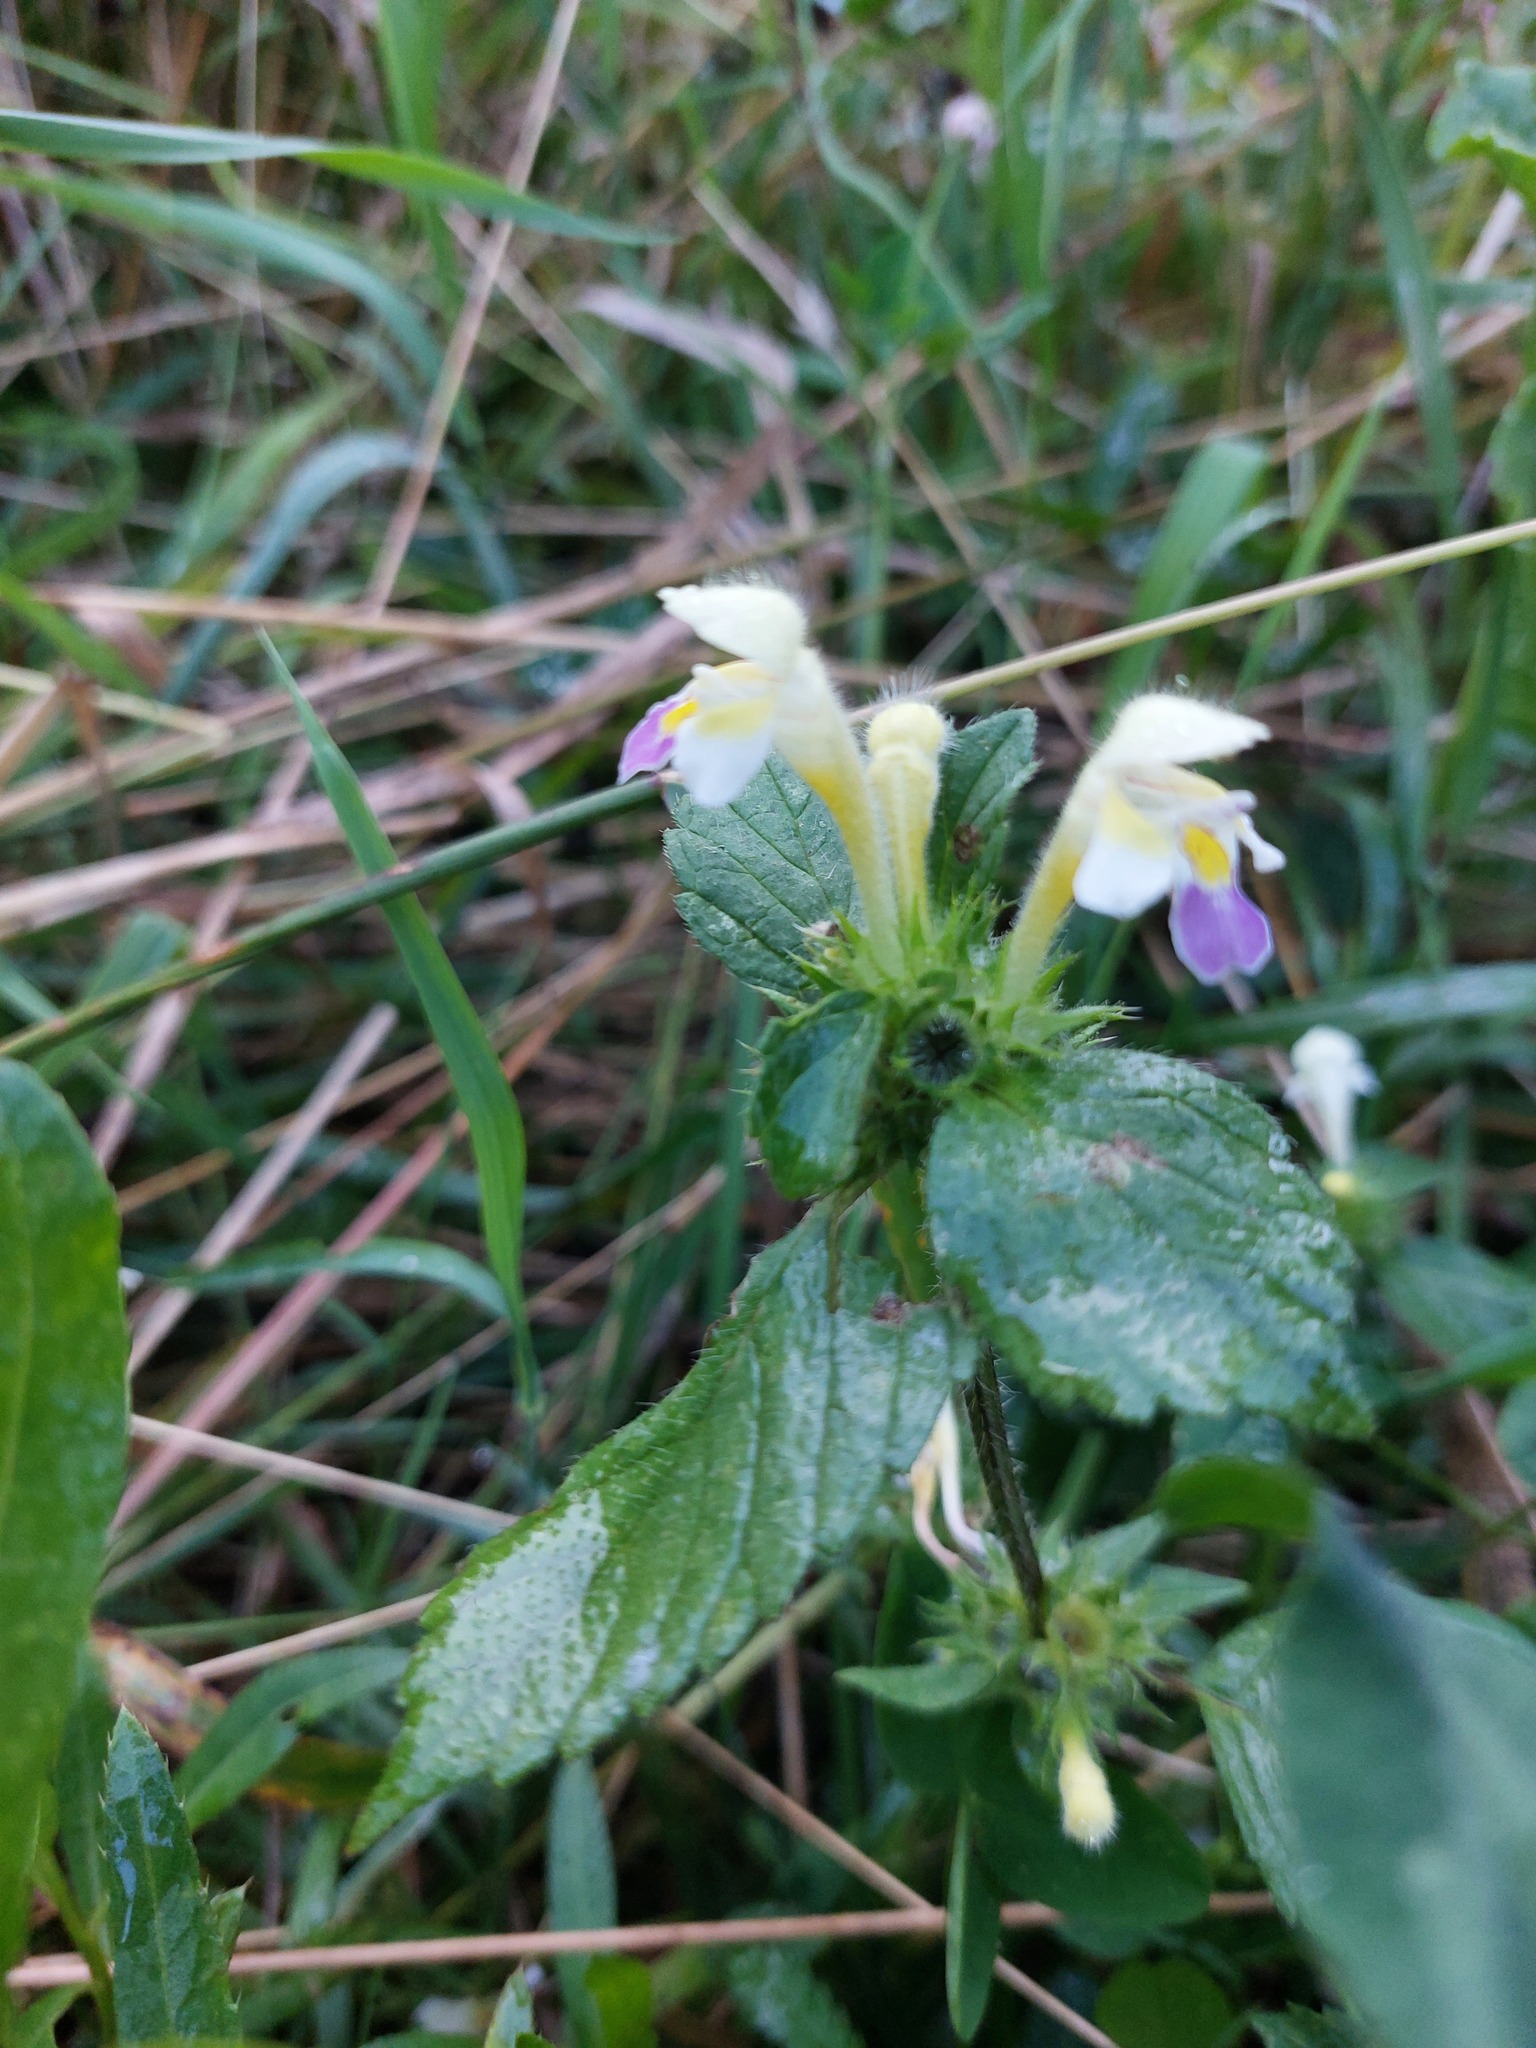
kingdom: Plantae
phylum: Tracheophyta
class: Magnoliopsida
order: Lamiales
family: Lamiaceae
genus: Galeopsis
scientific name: Galeopsis speciosa
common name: Large-flowered hemp-nettle
